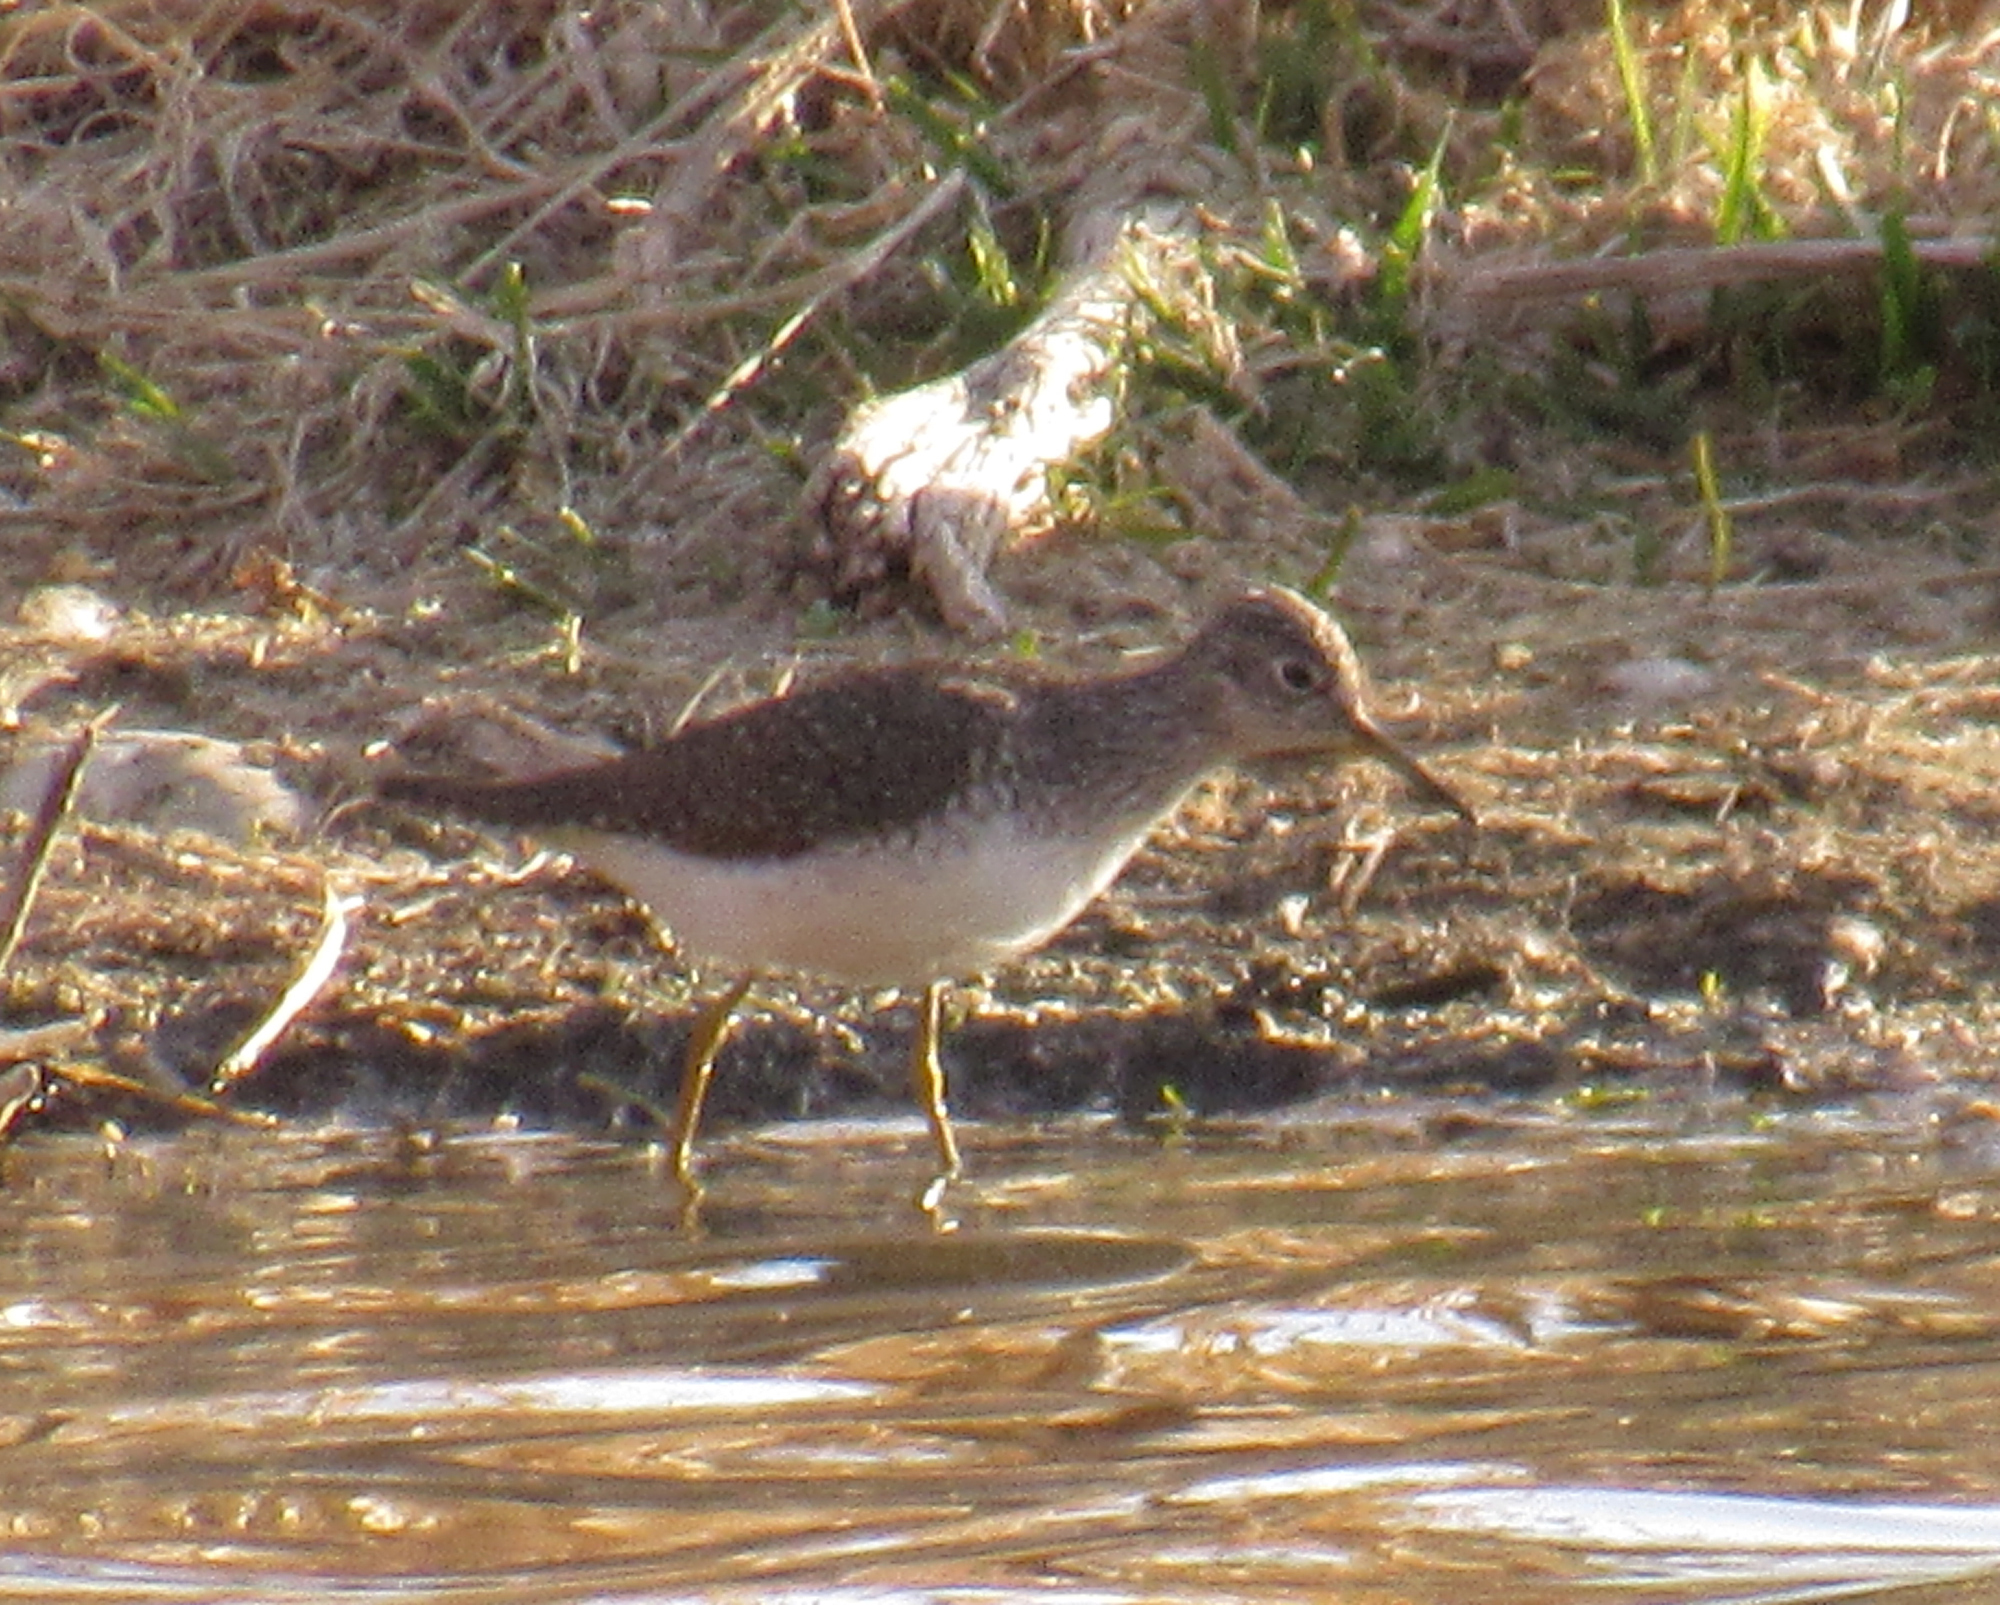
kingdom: Animalia
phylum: Chordata
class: Aves
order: Charadriiformes
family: Scolopacidae
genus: Tringa
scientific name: Tringa solitaria
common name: Solitary sandpiper
